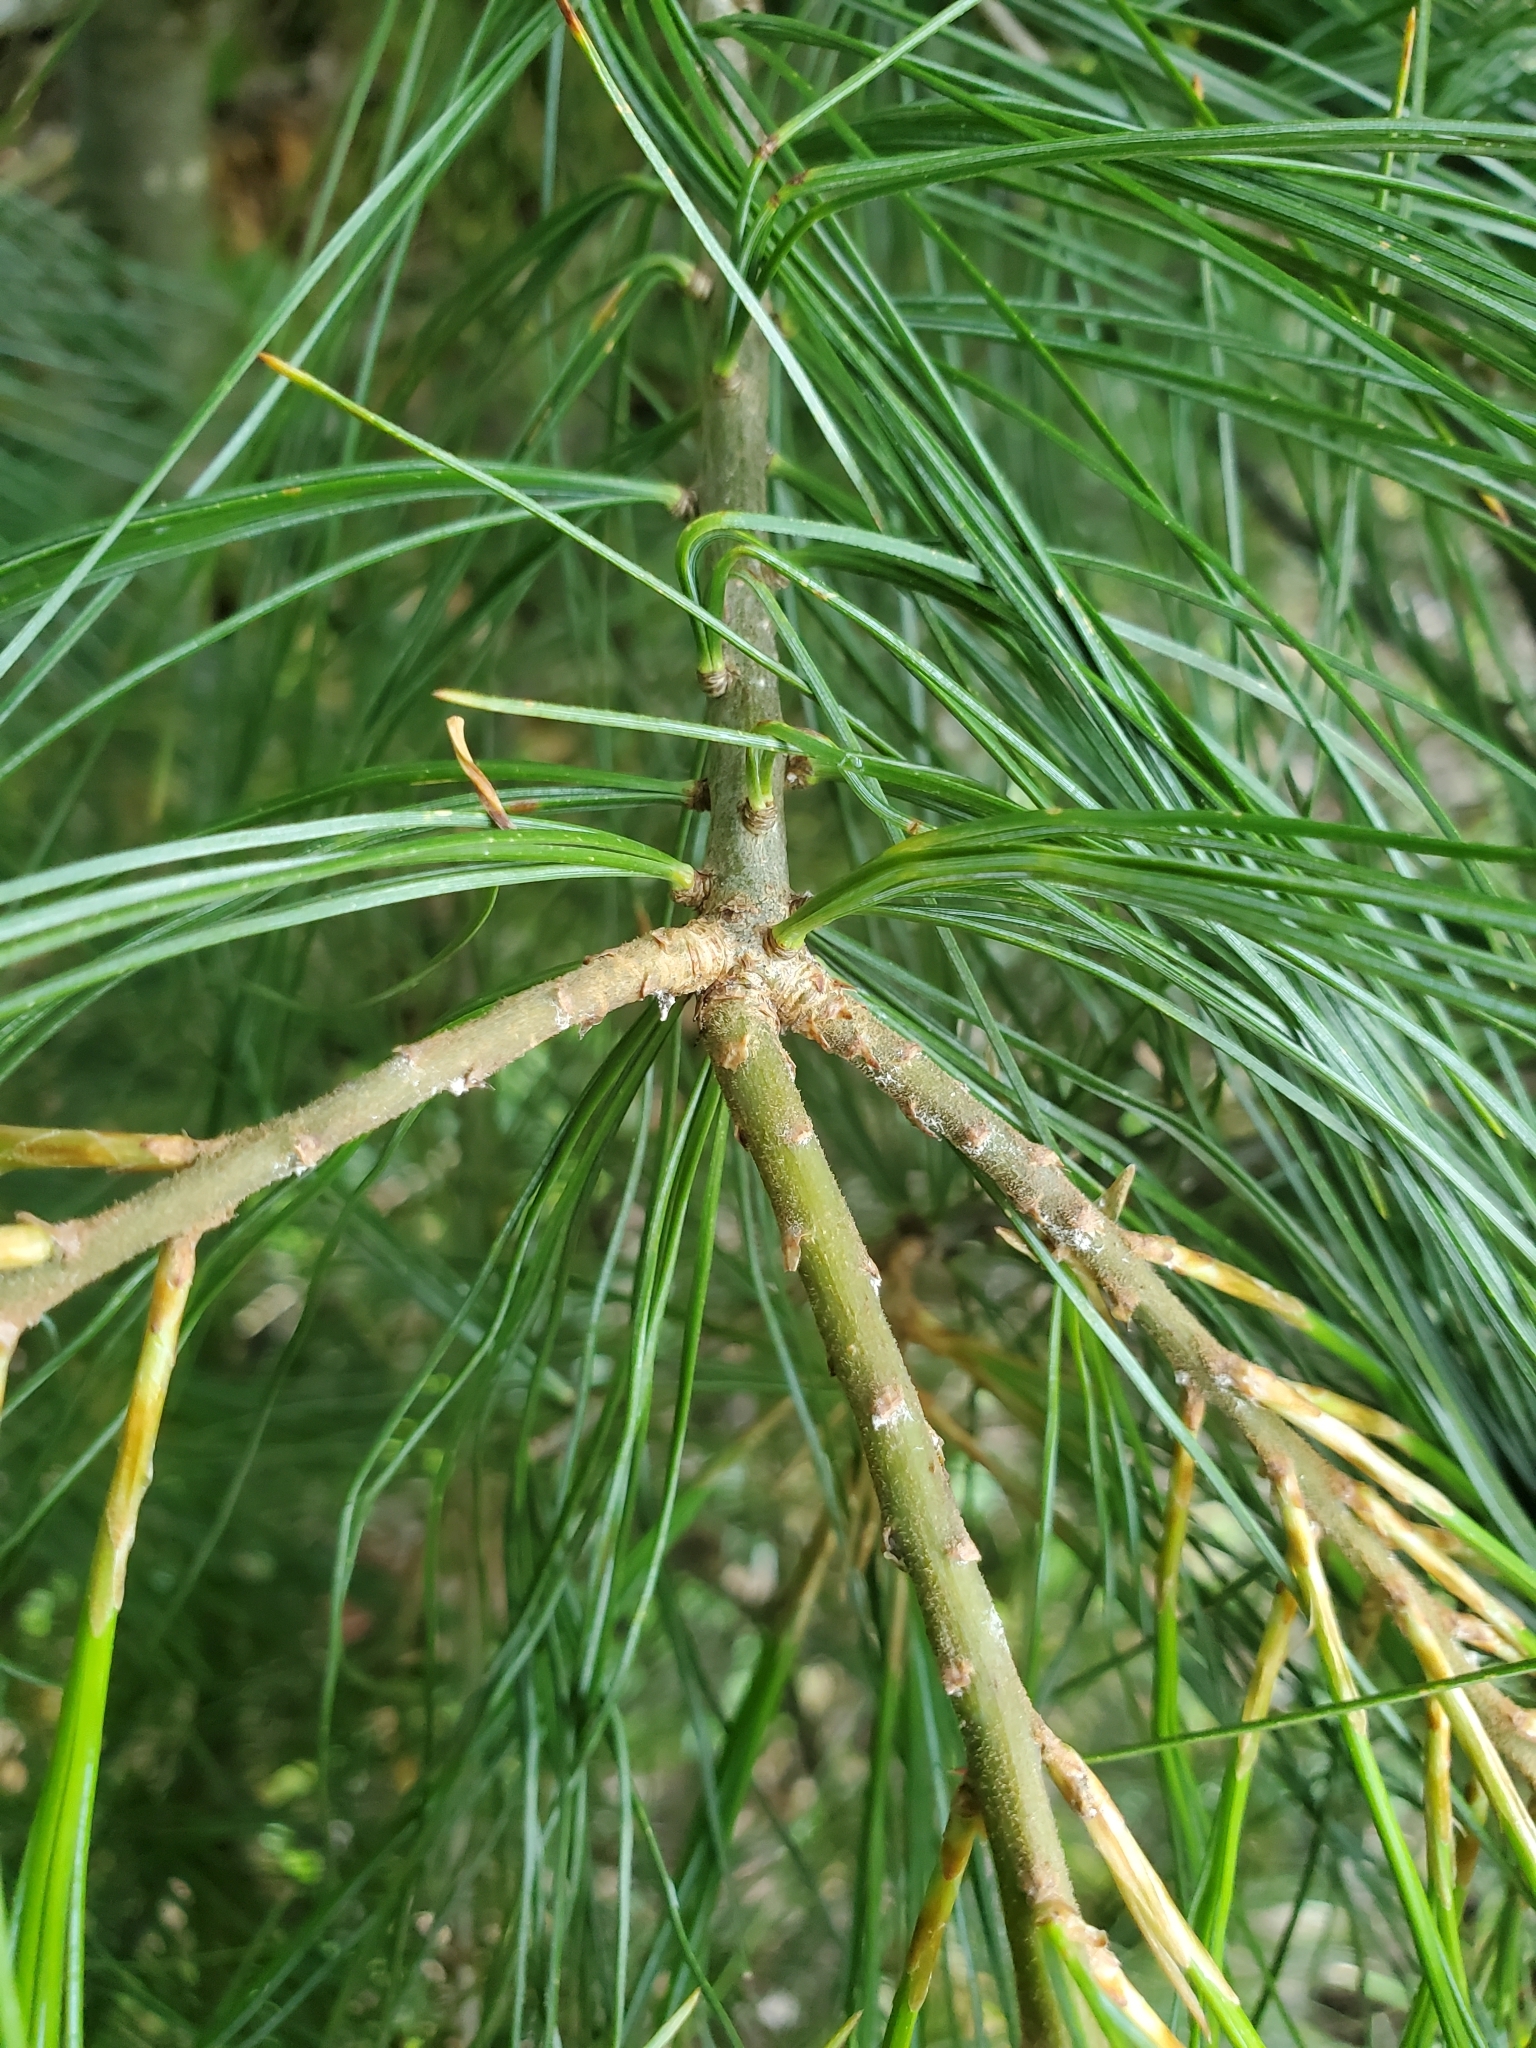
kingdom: Plantae
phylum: Tracheophyta
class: Pinopsida
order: Pinales
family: Pinaceae
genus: Pinus
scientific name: Pinus strobus
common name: Weymouth pine
